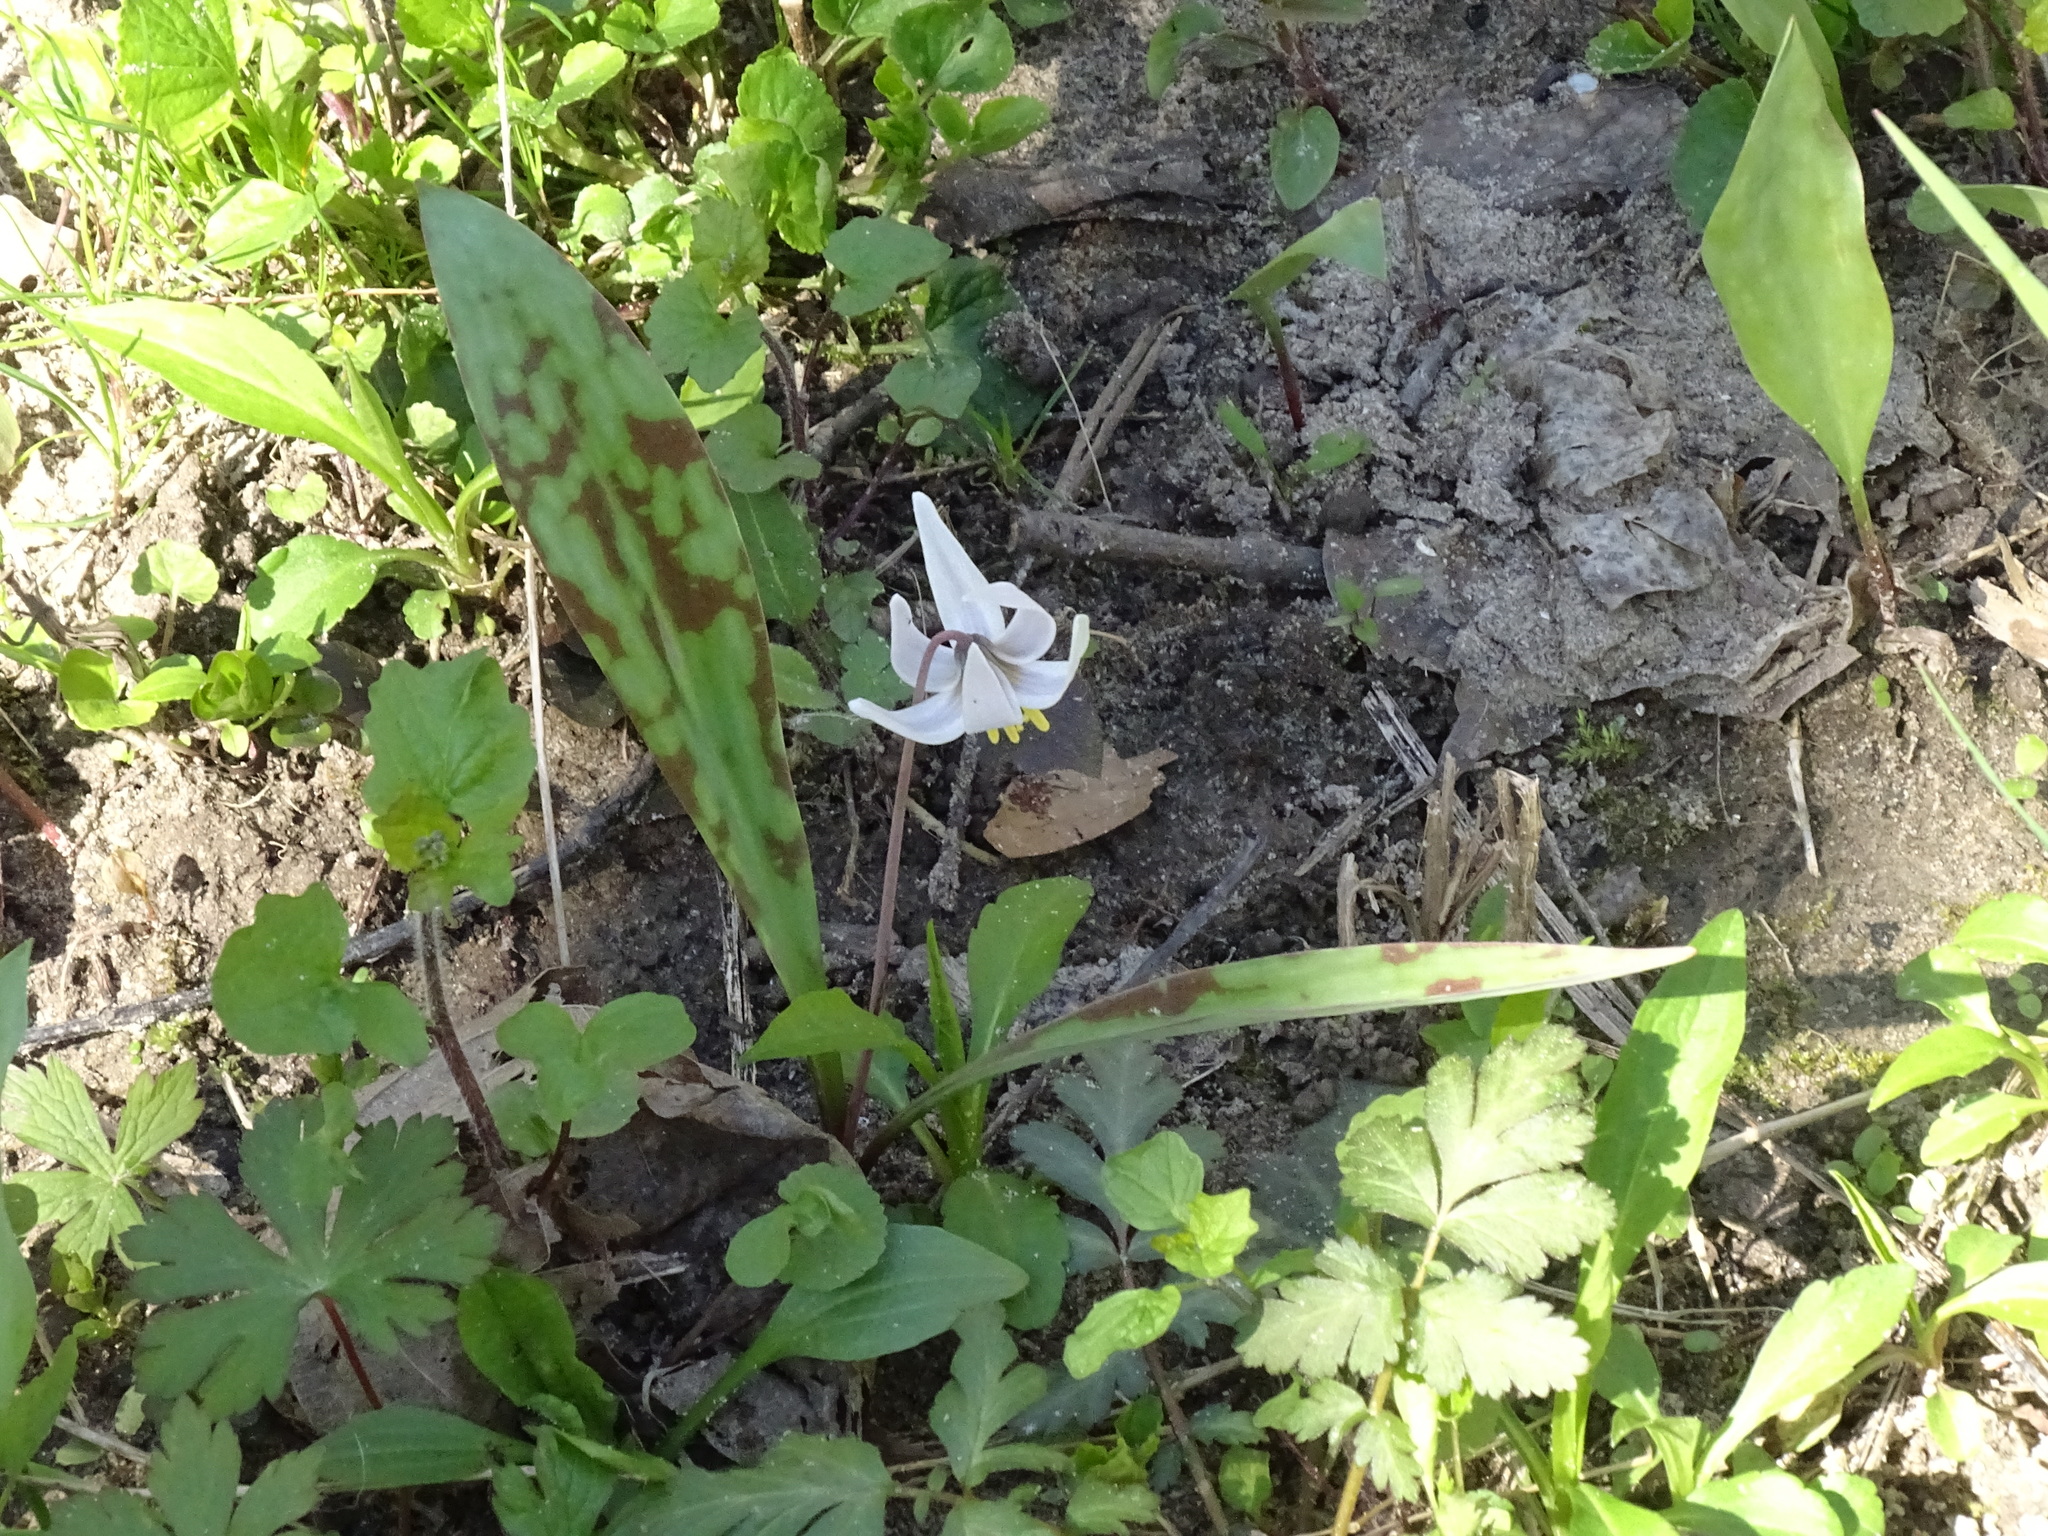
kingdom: Plantae
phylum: Tracheophyta
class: Liliopsida
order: Liliales
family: Liliaceae
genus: Erythronium
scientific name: Erythronium albidum
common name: White trout-lily
